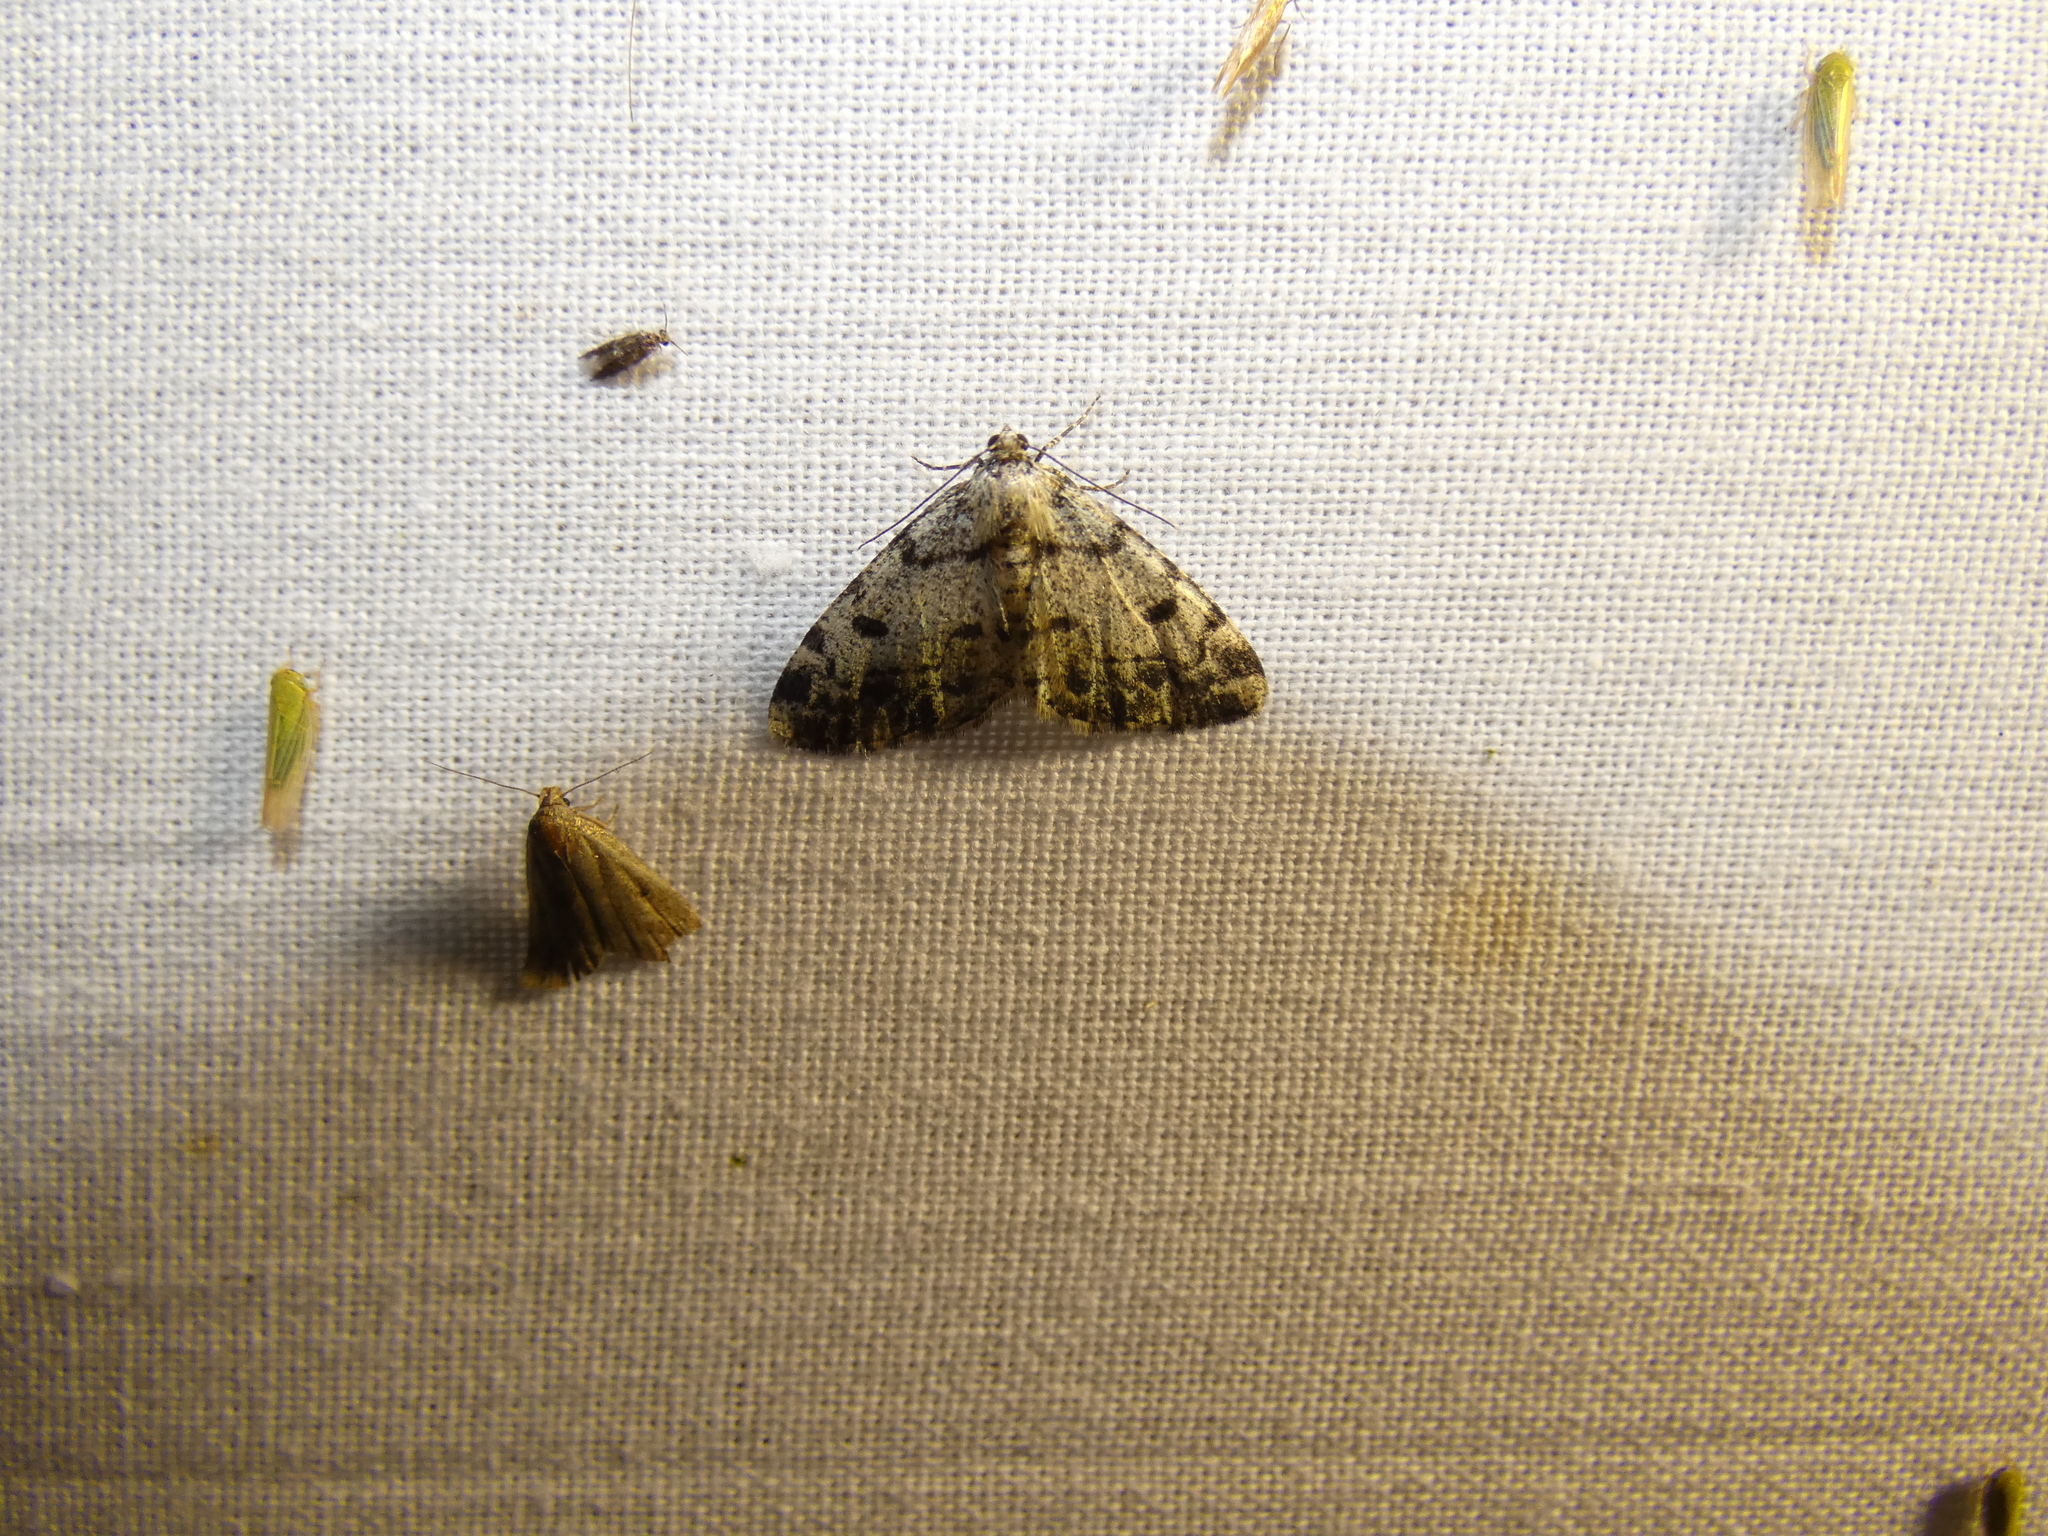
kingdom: Animalia
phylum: Arthropoda
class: Insecta
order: Lepidoptera
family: Geometridae
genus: Alcis
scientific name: Alcis jubata
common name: Dotted carpet
